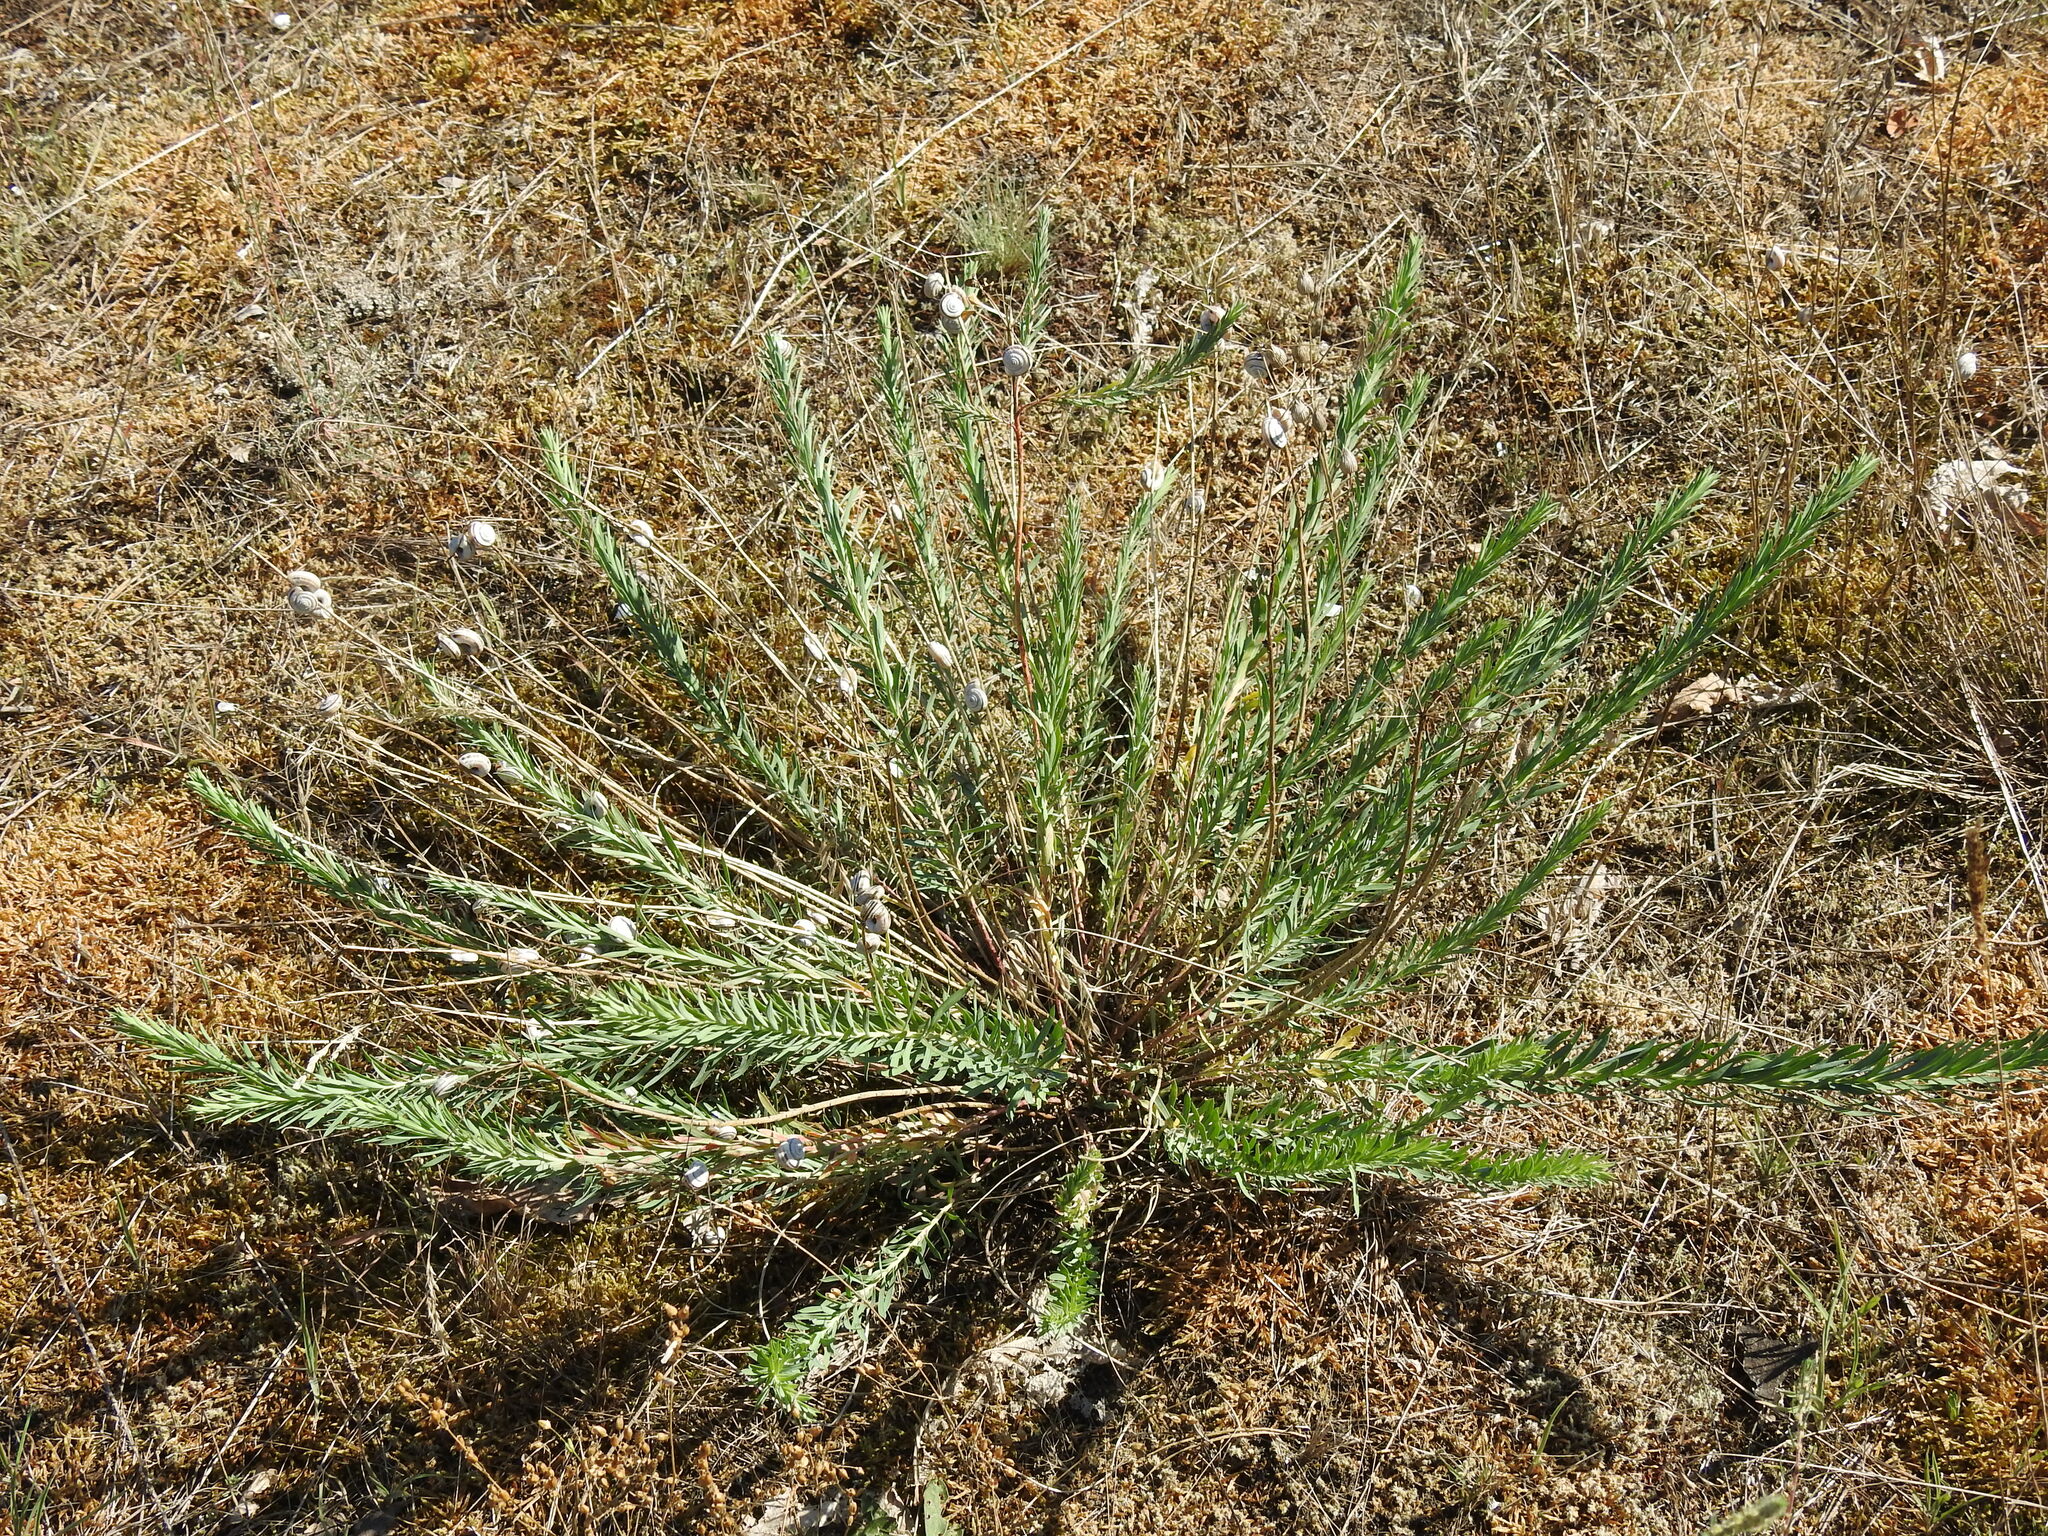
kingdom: Plantae
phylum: Tracheophyta
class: Magnoliopsida
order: Malpighiales
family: Euphorbiaceae
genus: Euphorbia
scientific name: Euphorbia seguieriana
